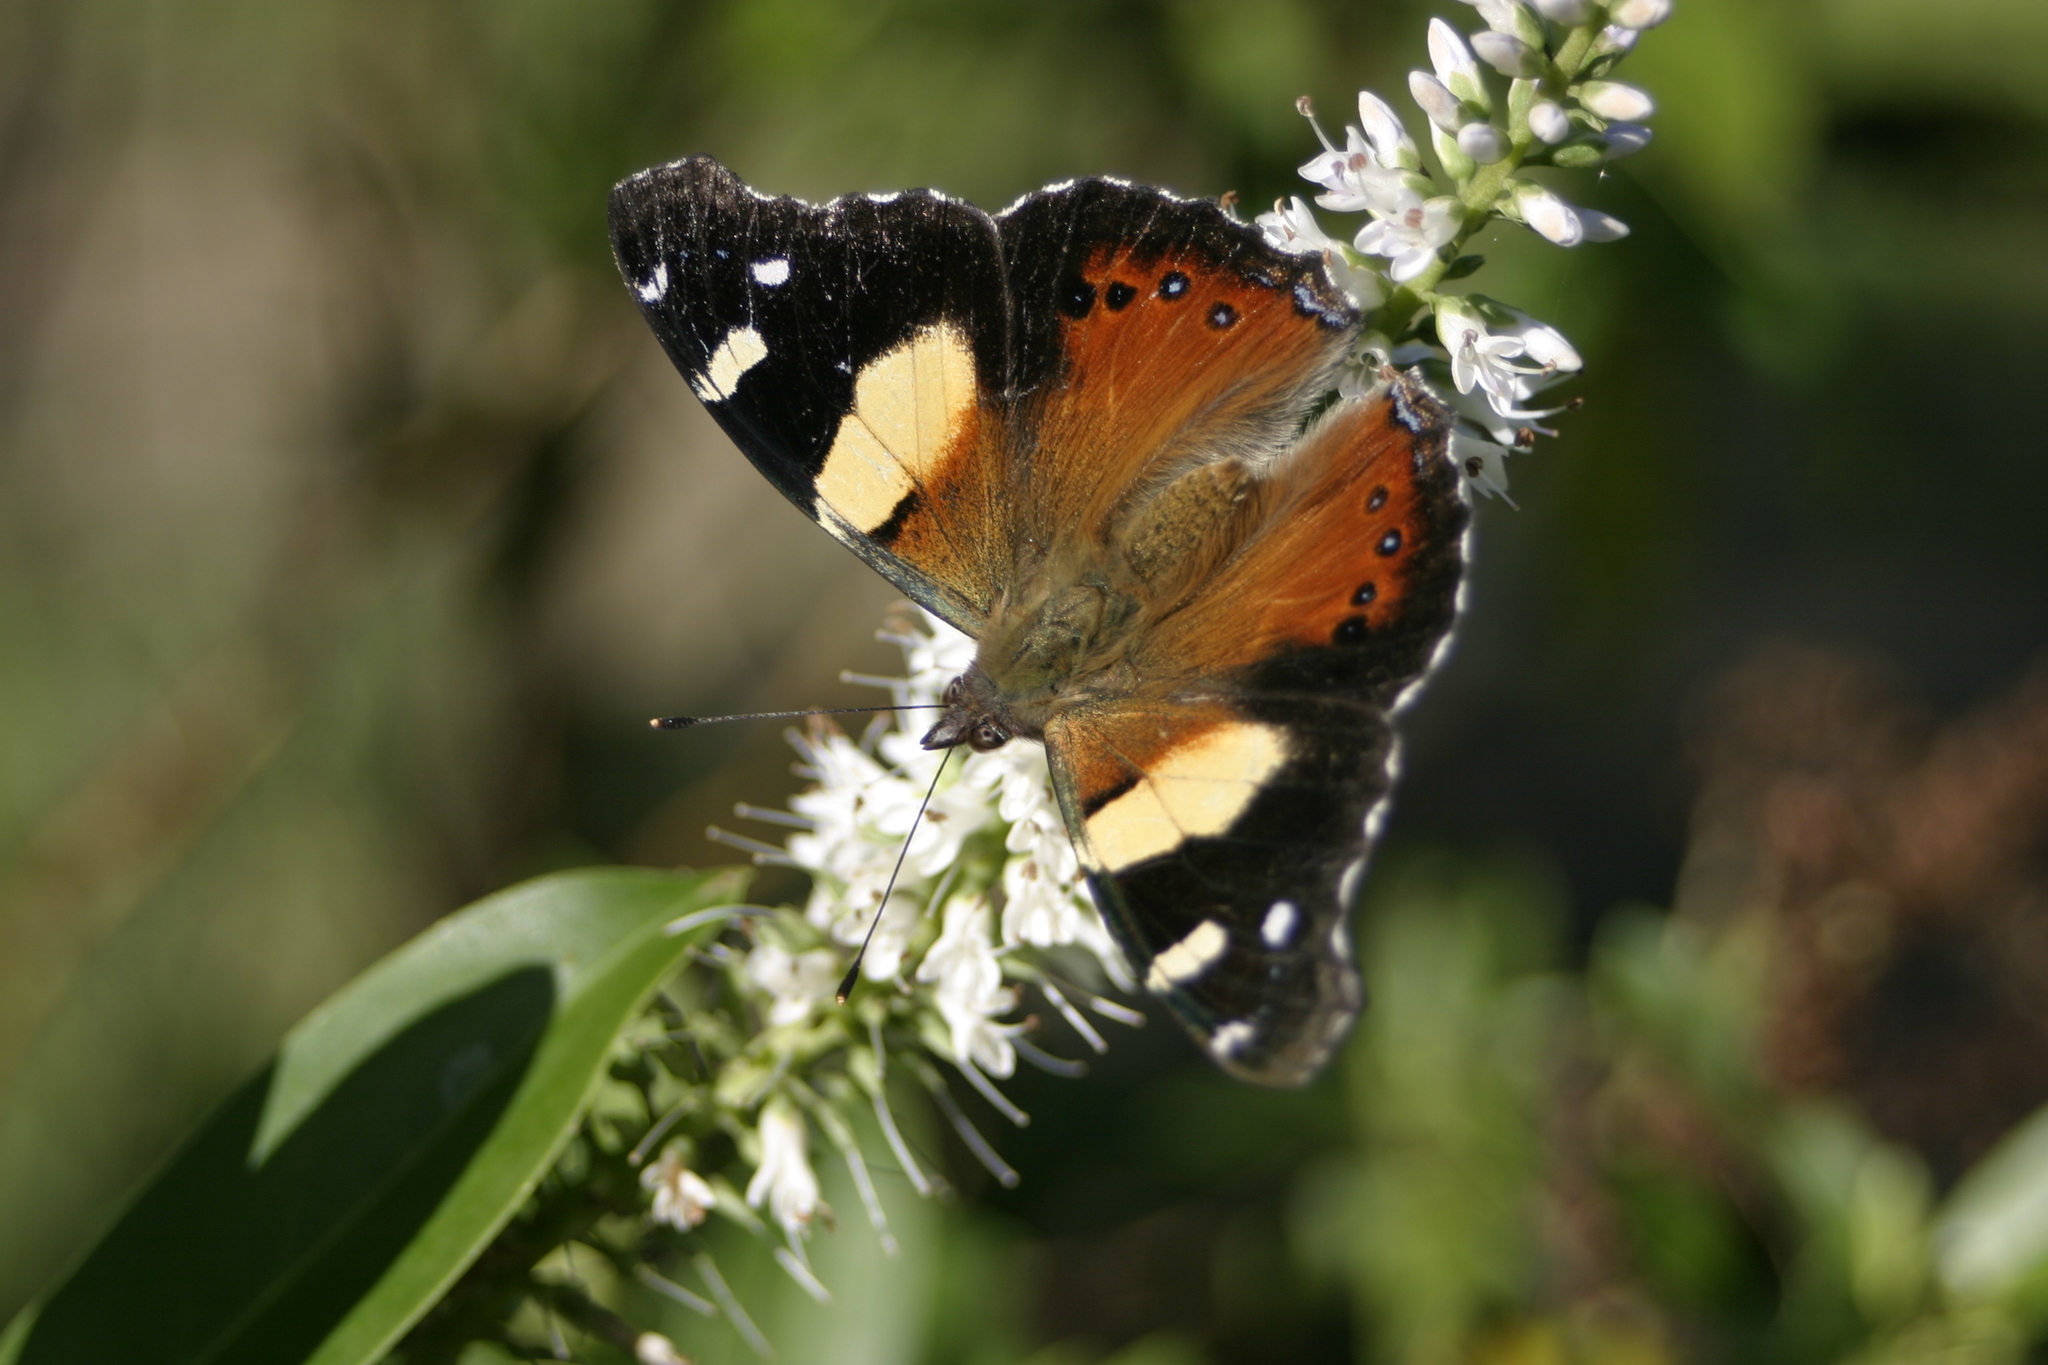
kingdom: Animalia
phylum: Arthropoda
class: Insecta
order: Lepidoptera
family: Nymphalidae
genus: Vanessa
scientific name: Vanessa itea
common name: Yellow admiral
